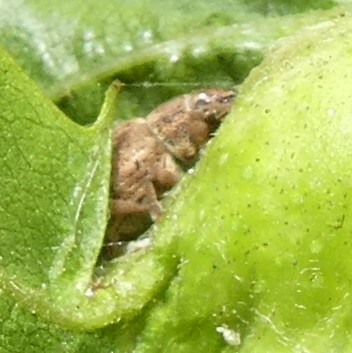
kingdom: Animalia
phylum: Arthropoda
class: Insecta
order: Coleoptera
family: Curculionidae
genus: Strophosoma
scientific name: Strophosoma melanogrammum
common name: Weevil
